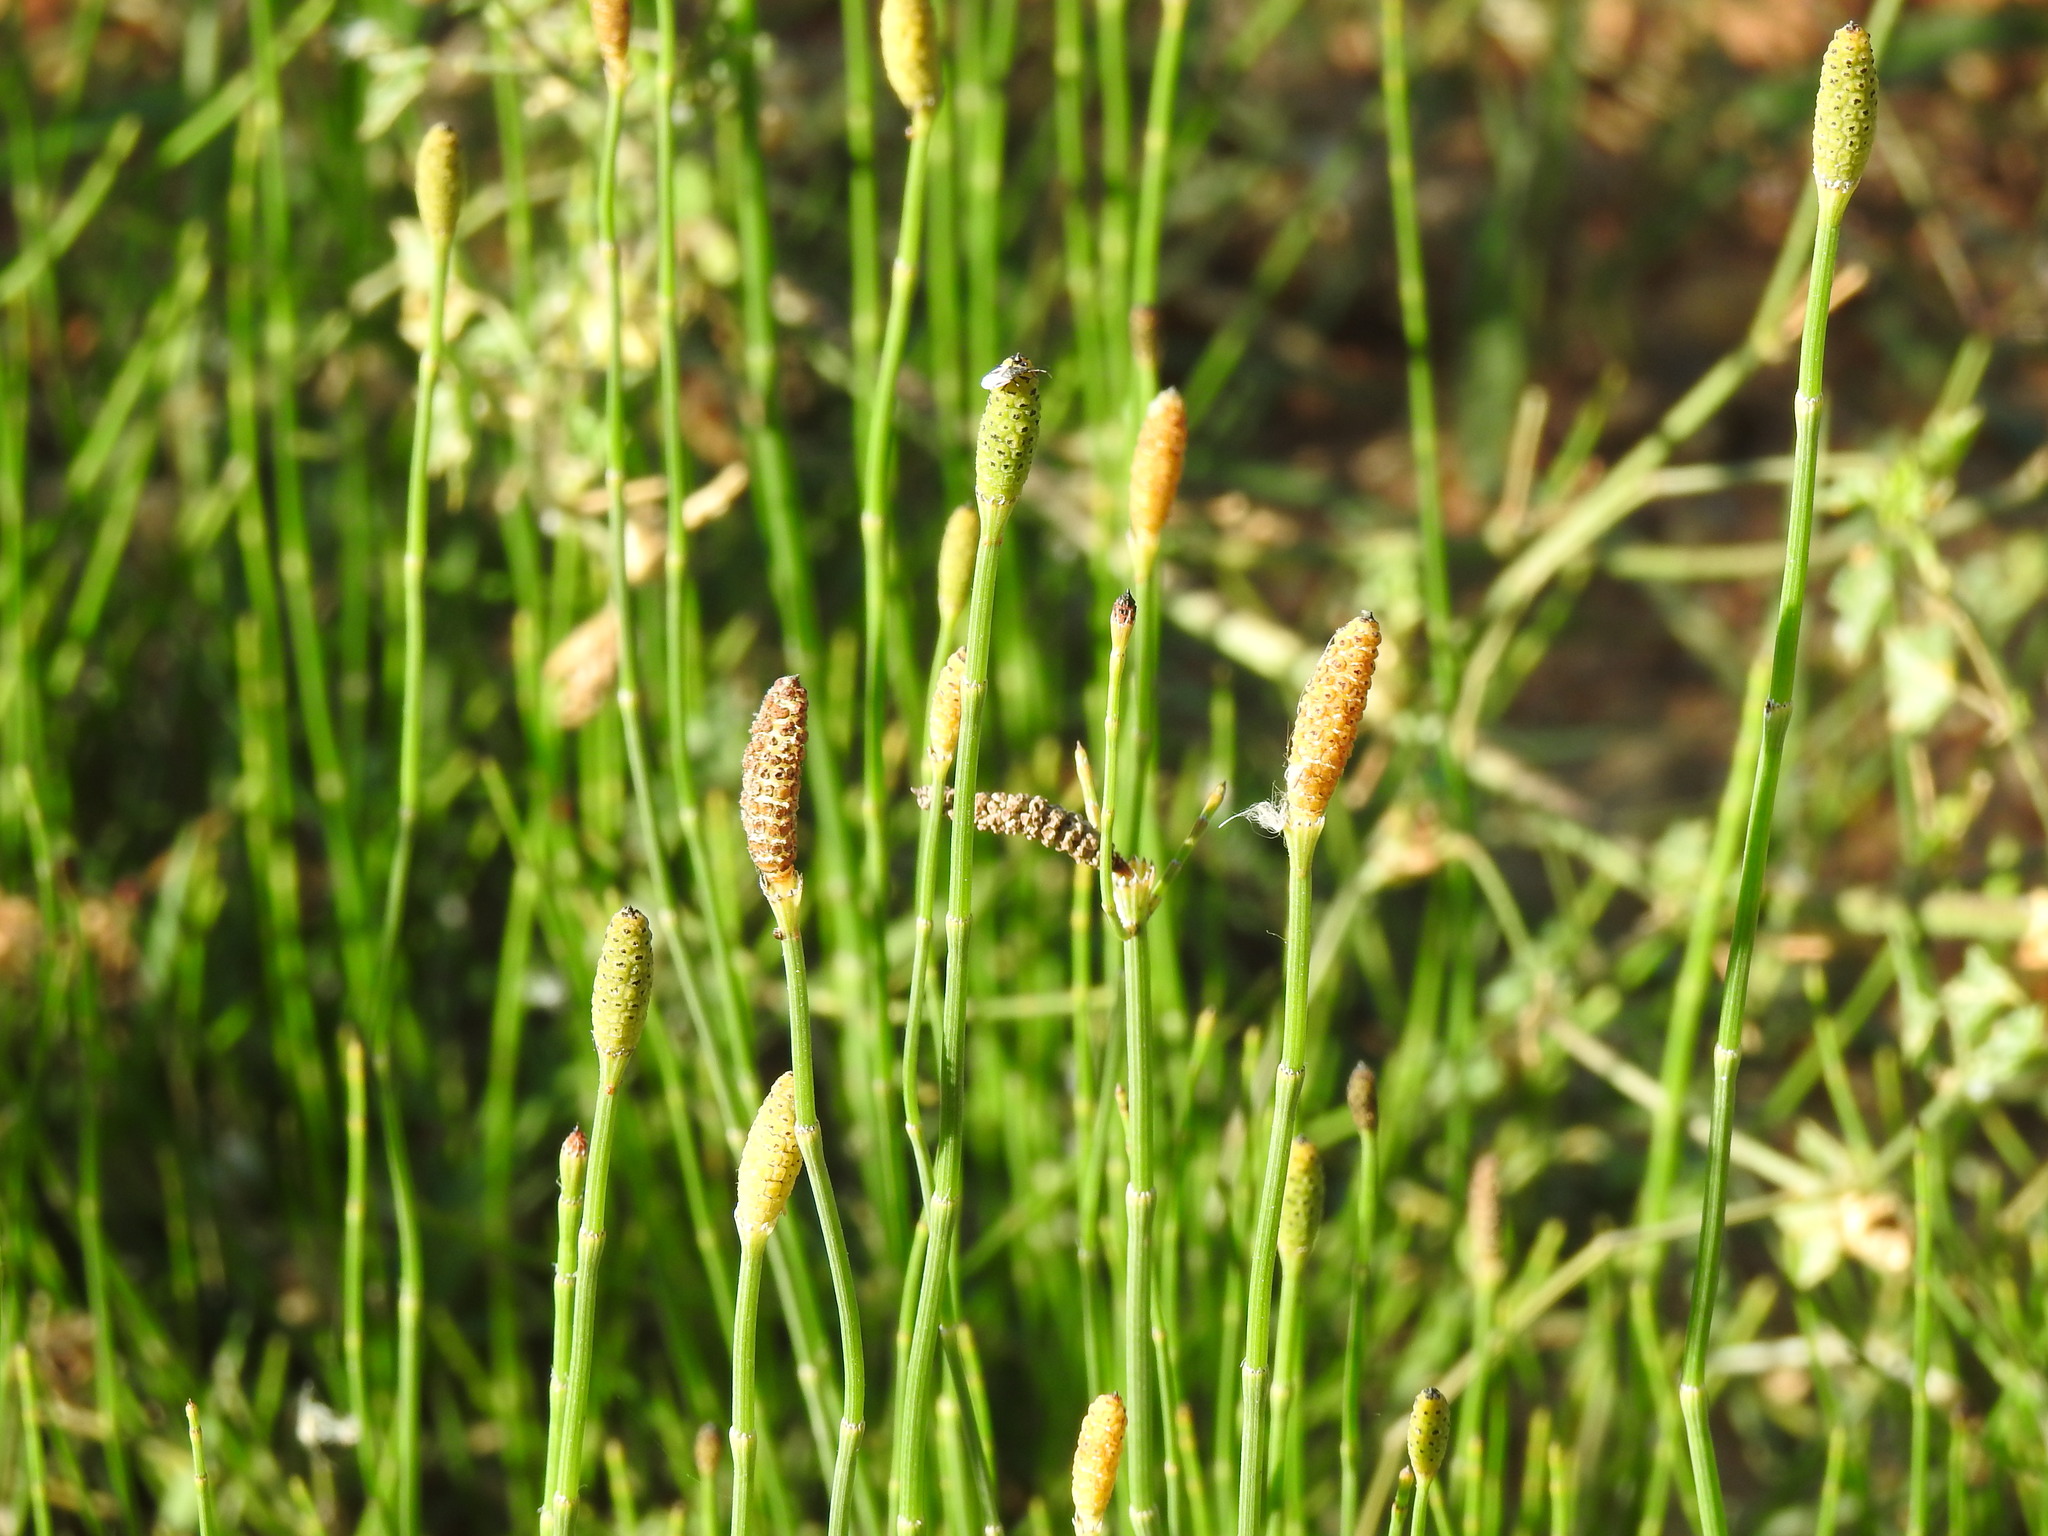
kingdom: Plantae
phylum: Tracheophyta
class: Polypodiopsida
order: Equisetales
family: Equisetaceae
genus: Equisetum
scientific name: Equisetum ramosissimum
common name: Branched horsetail
